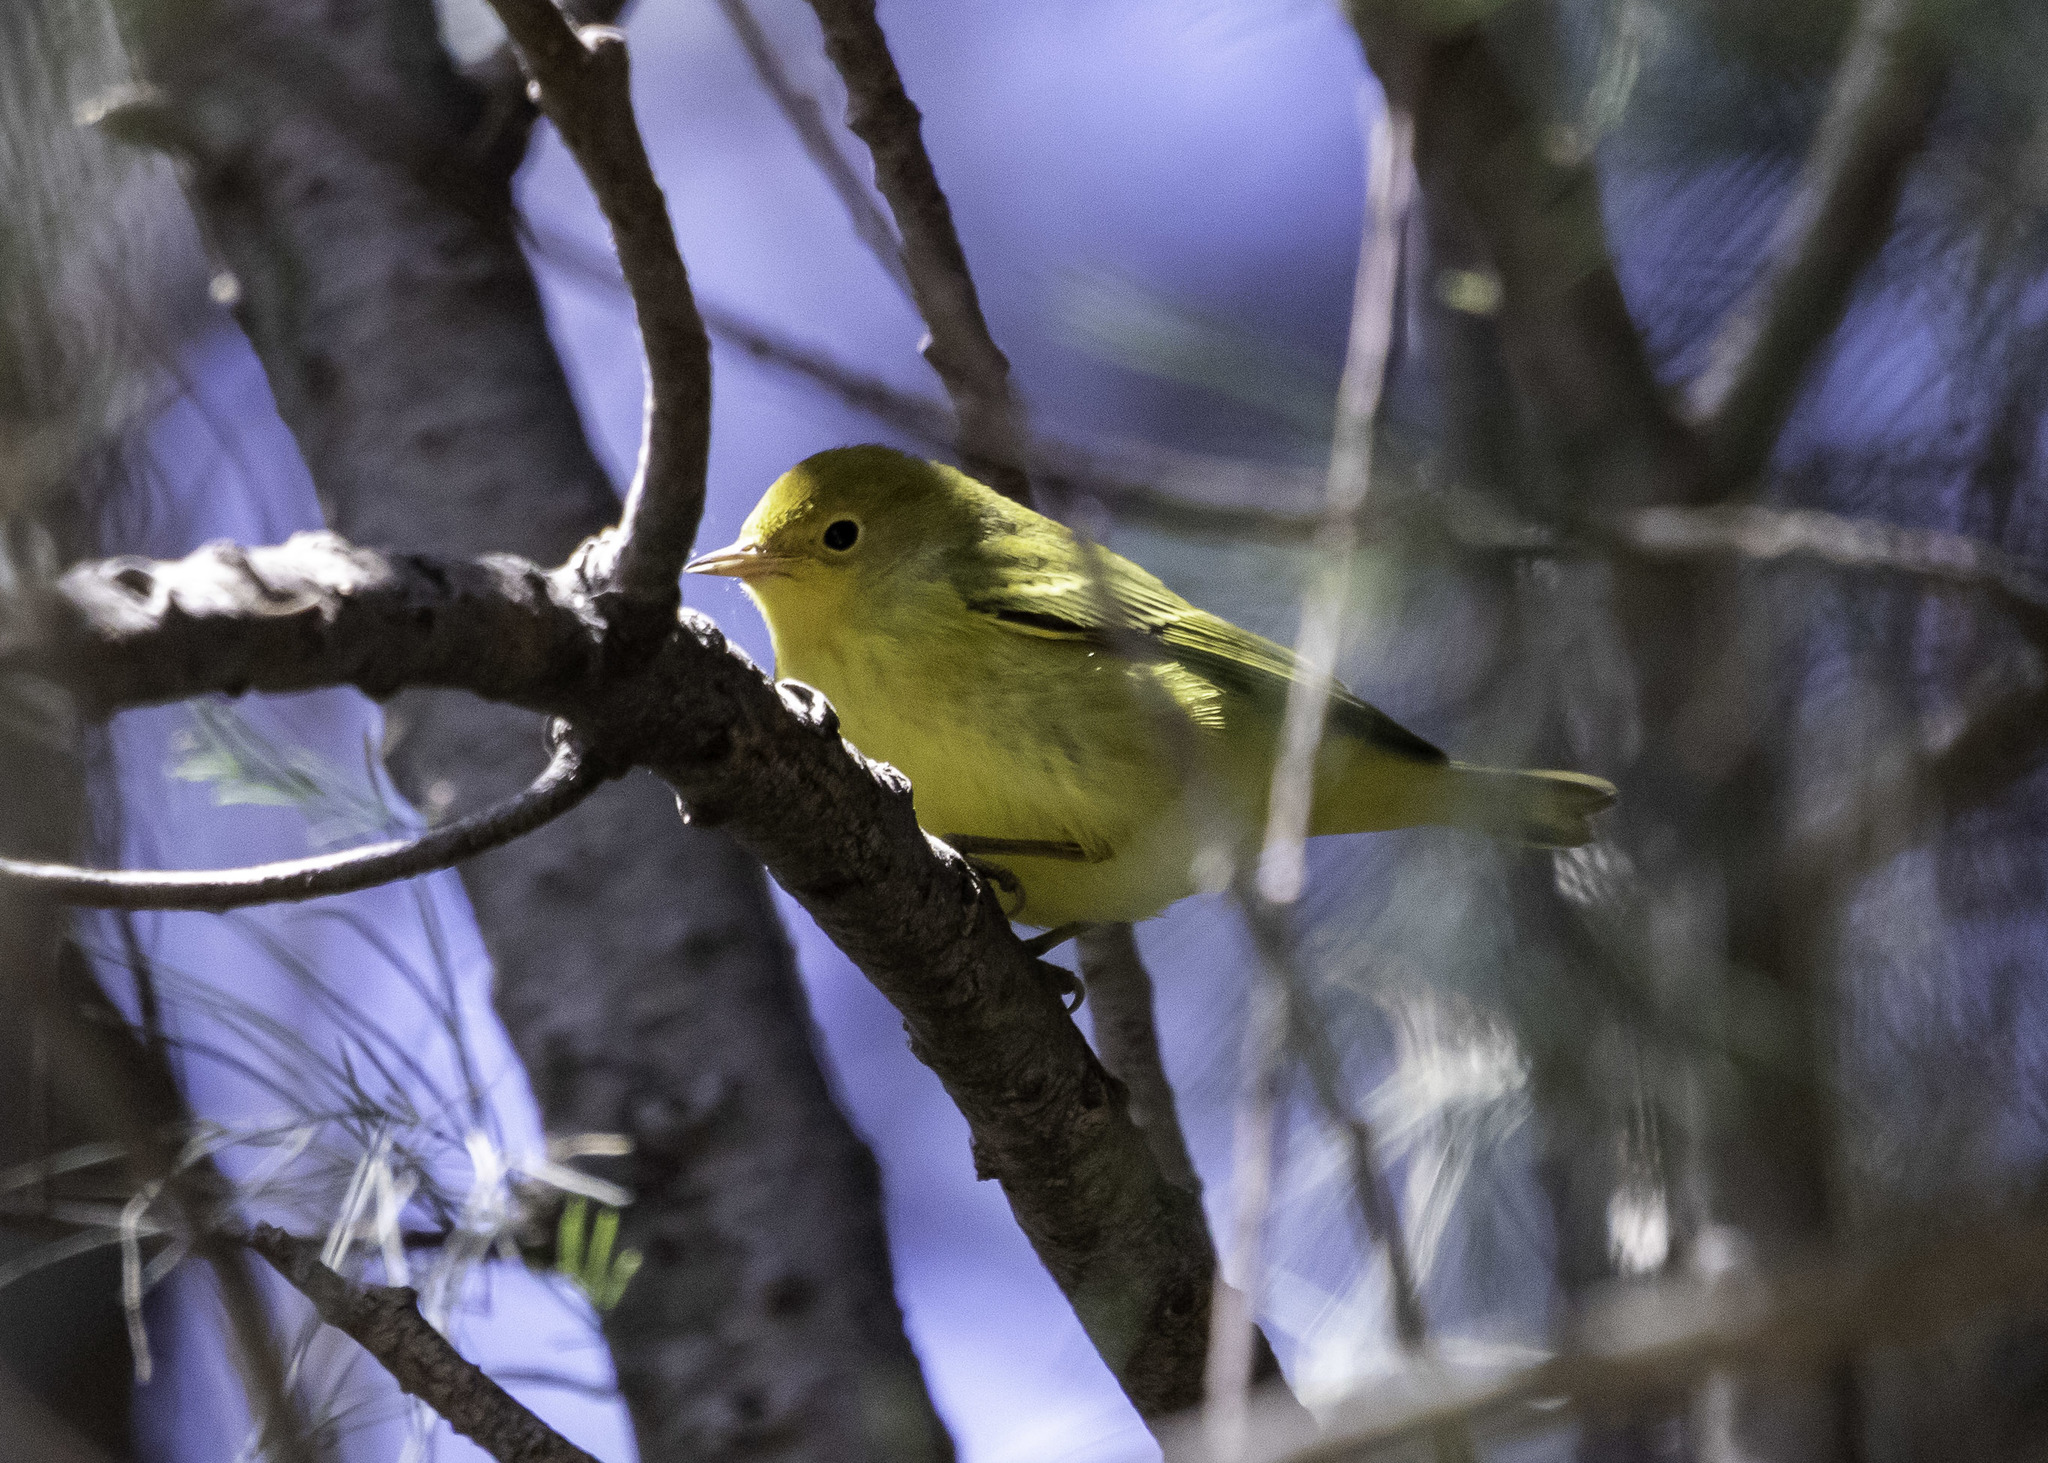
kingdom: Animalia
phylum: Chordata
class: Aves
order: Passeriformes
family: Parulidae
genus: Setophaga
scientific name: Setophaga petechia
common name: Yellow warbler
